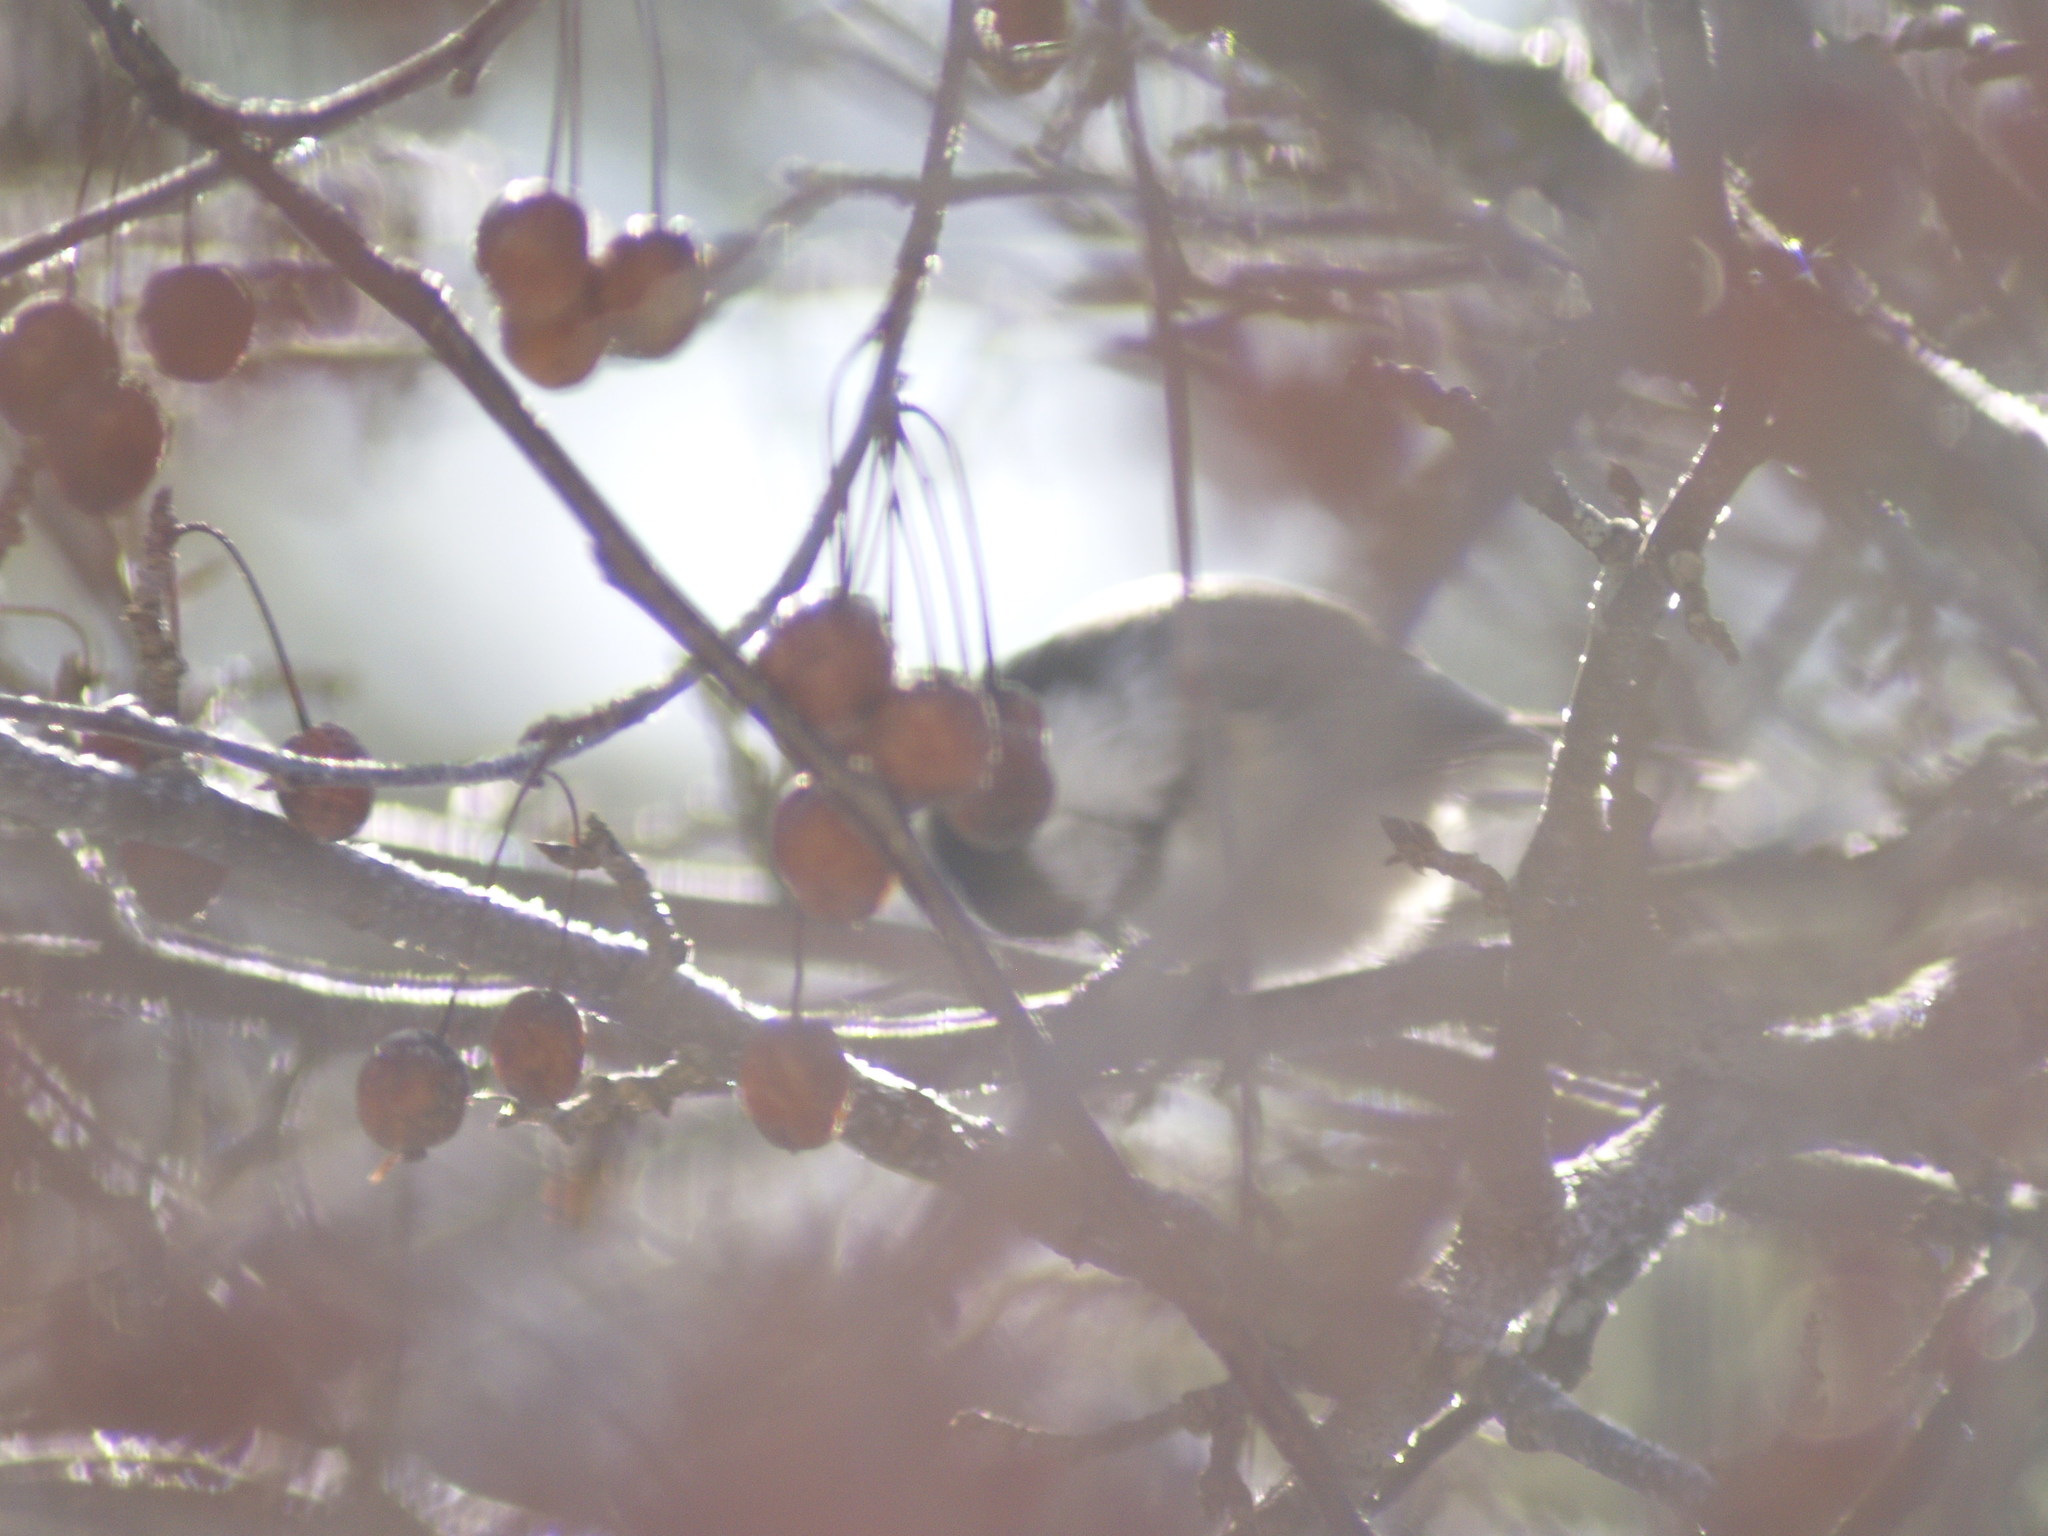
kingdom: Animalia
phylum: Chordata
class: Aves
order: Passeriformes
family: Paridae
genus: Poecile
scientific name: Poecile atricapillus
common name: Black-capped chickadee
